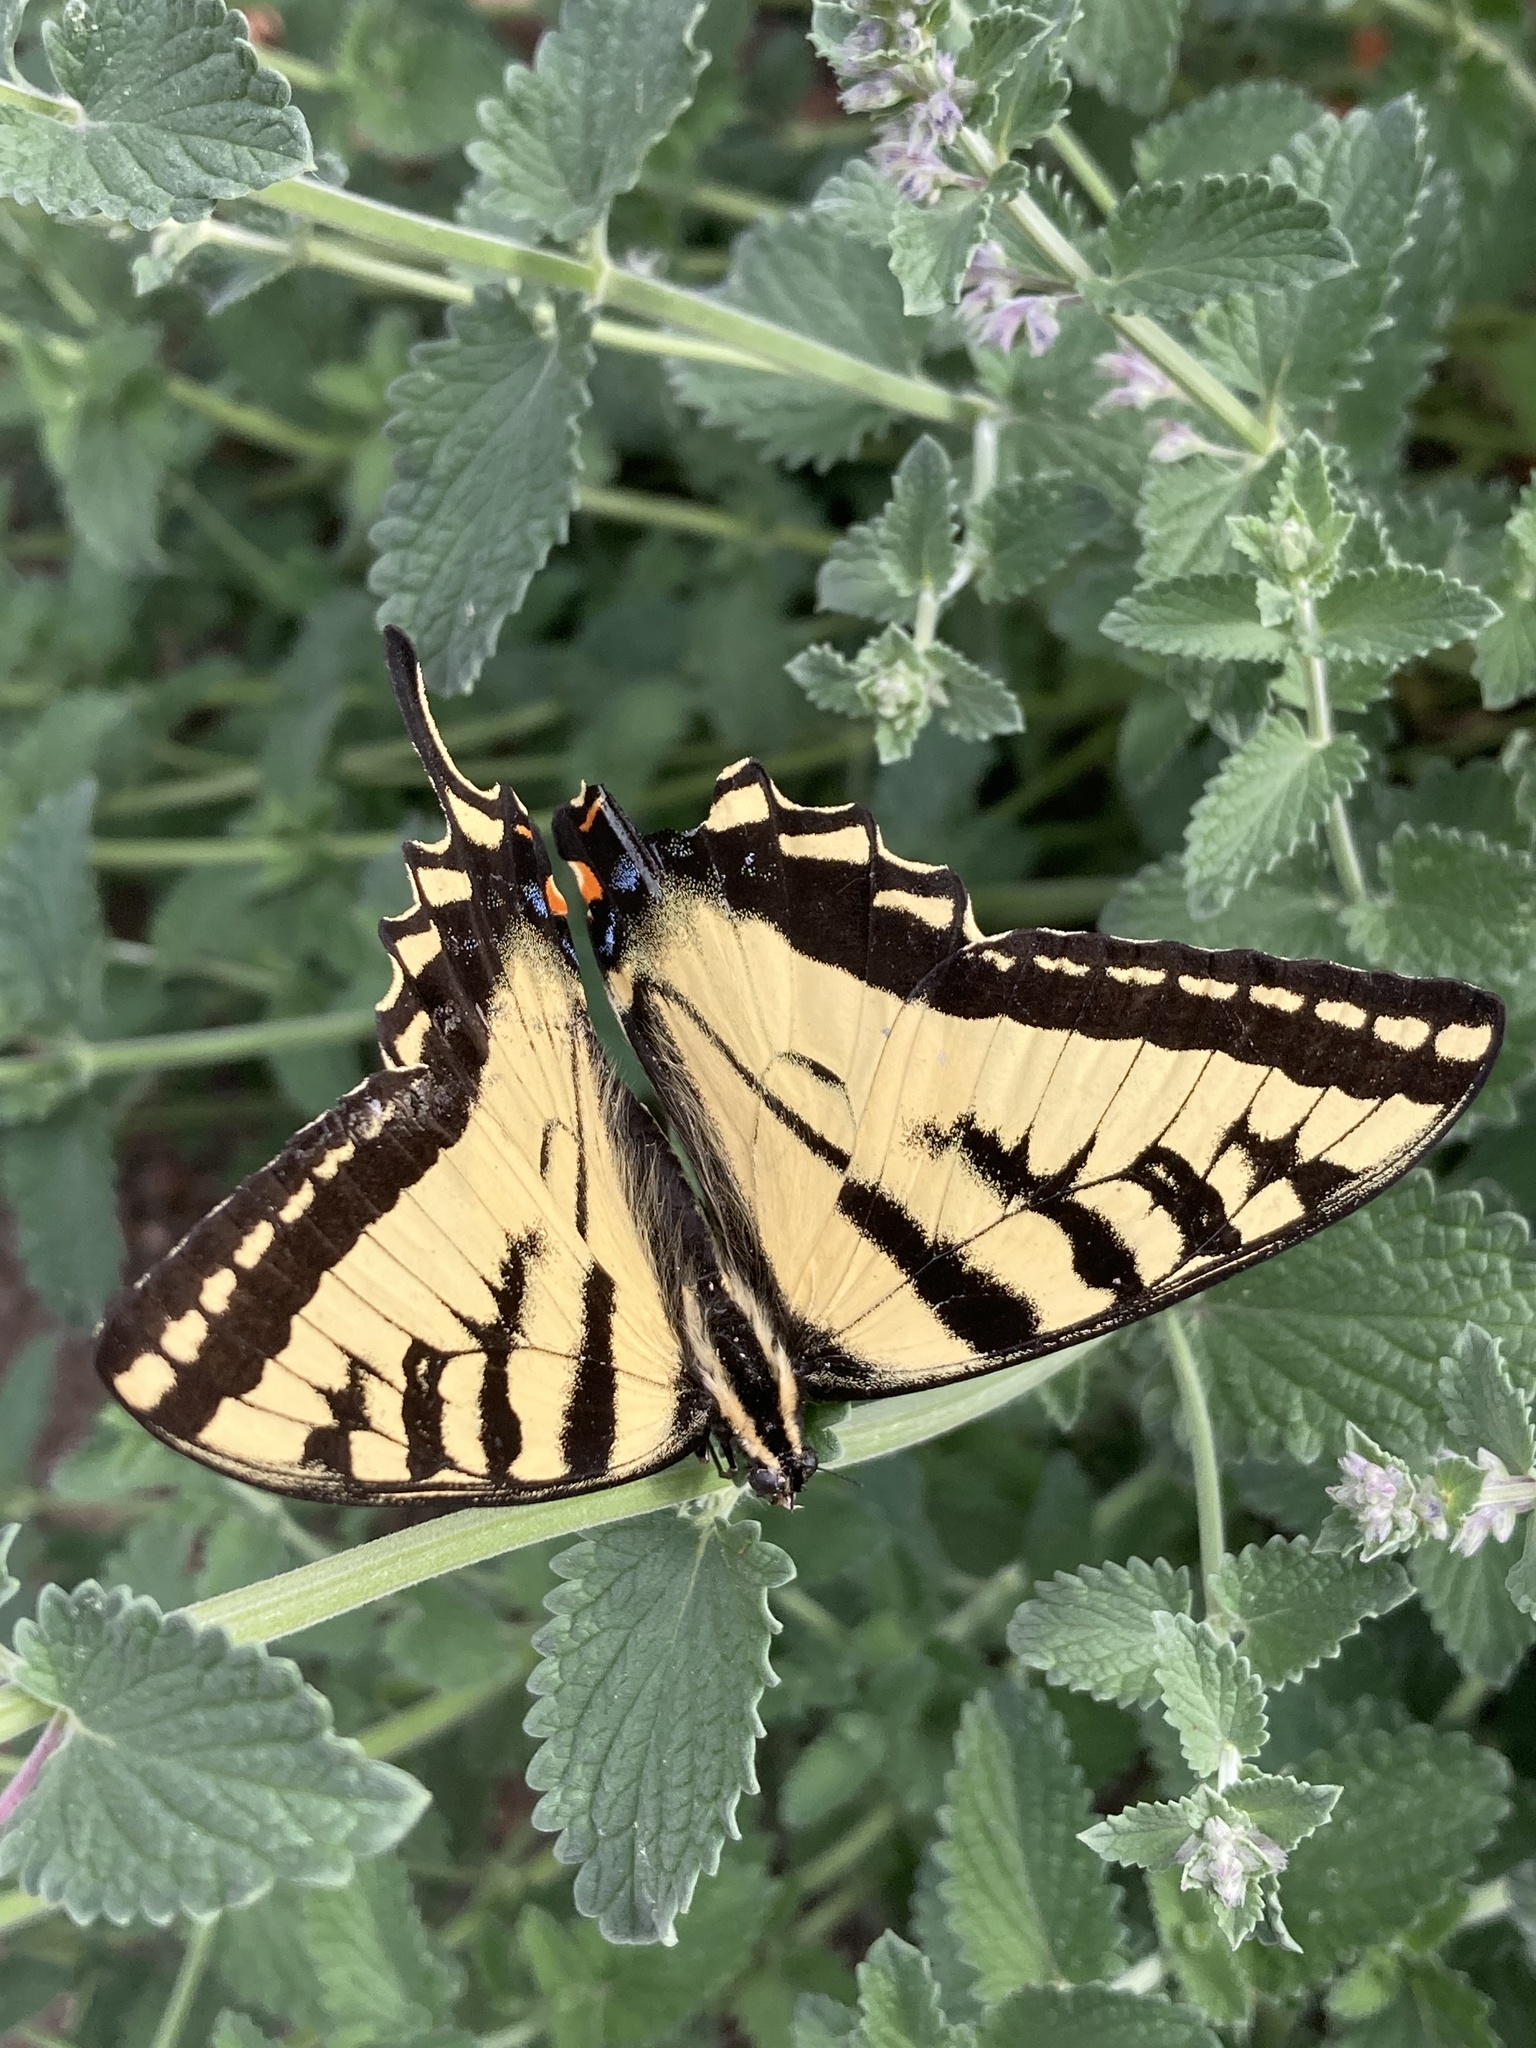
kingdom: Animalia
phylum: Arthropoda
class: Insecta
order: Lepidoptera
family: Papilionidae
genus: Papilio
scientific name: Papilio rutulus
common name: Western tiger swallowtail
